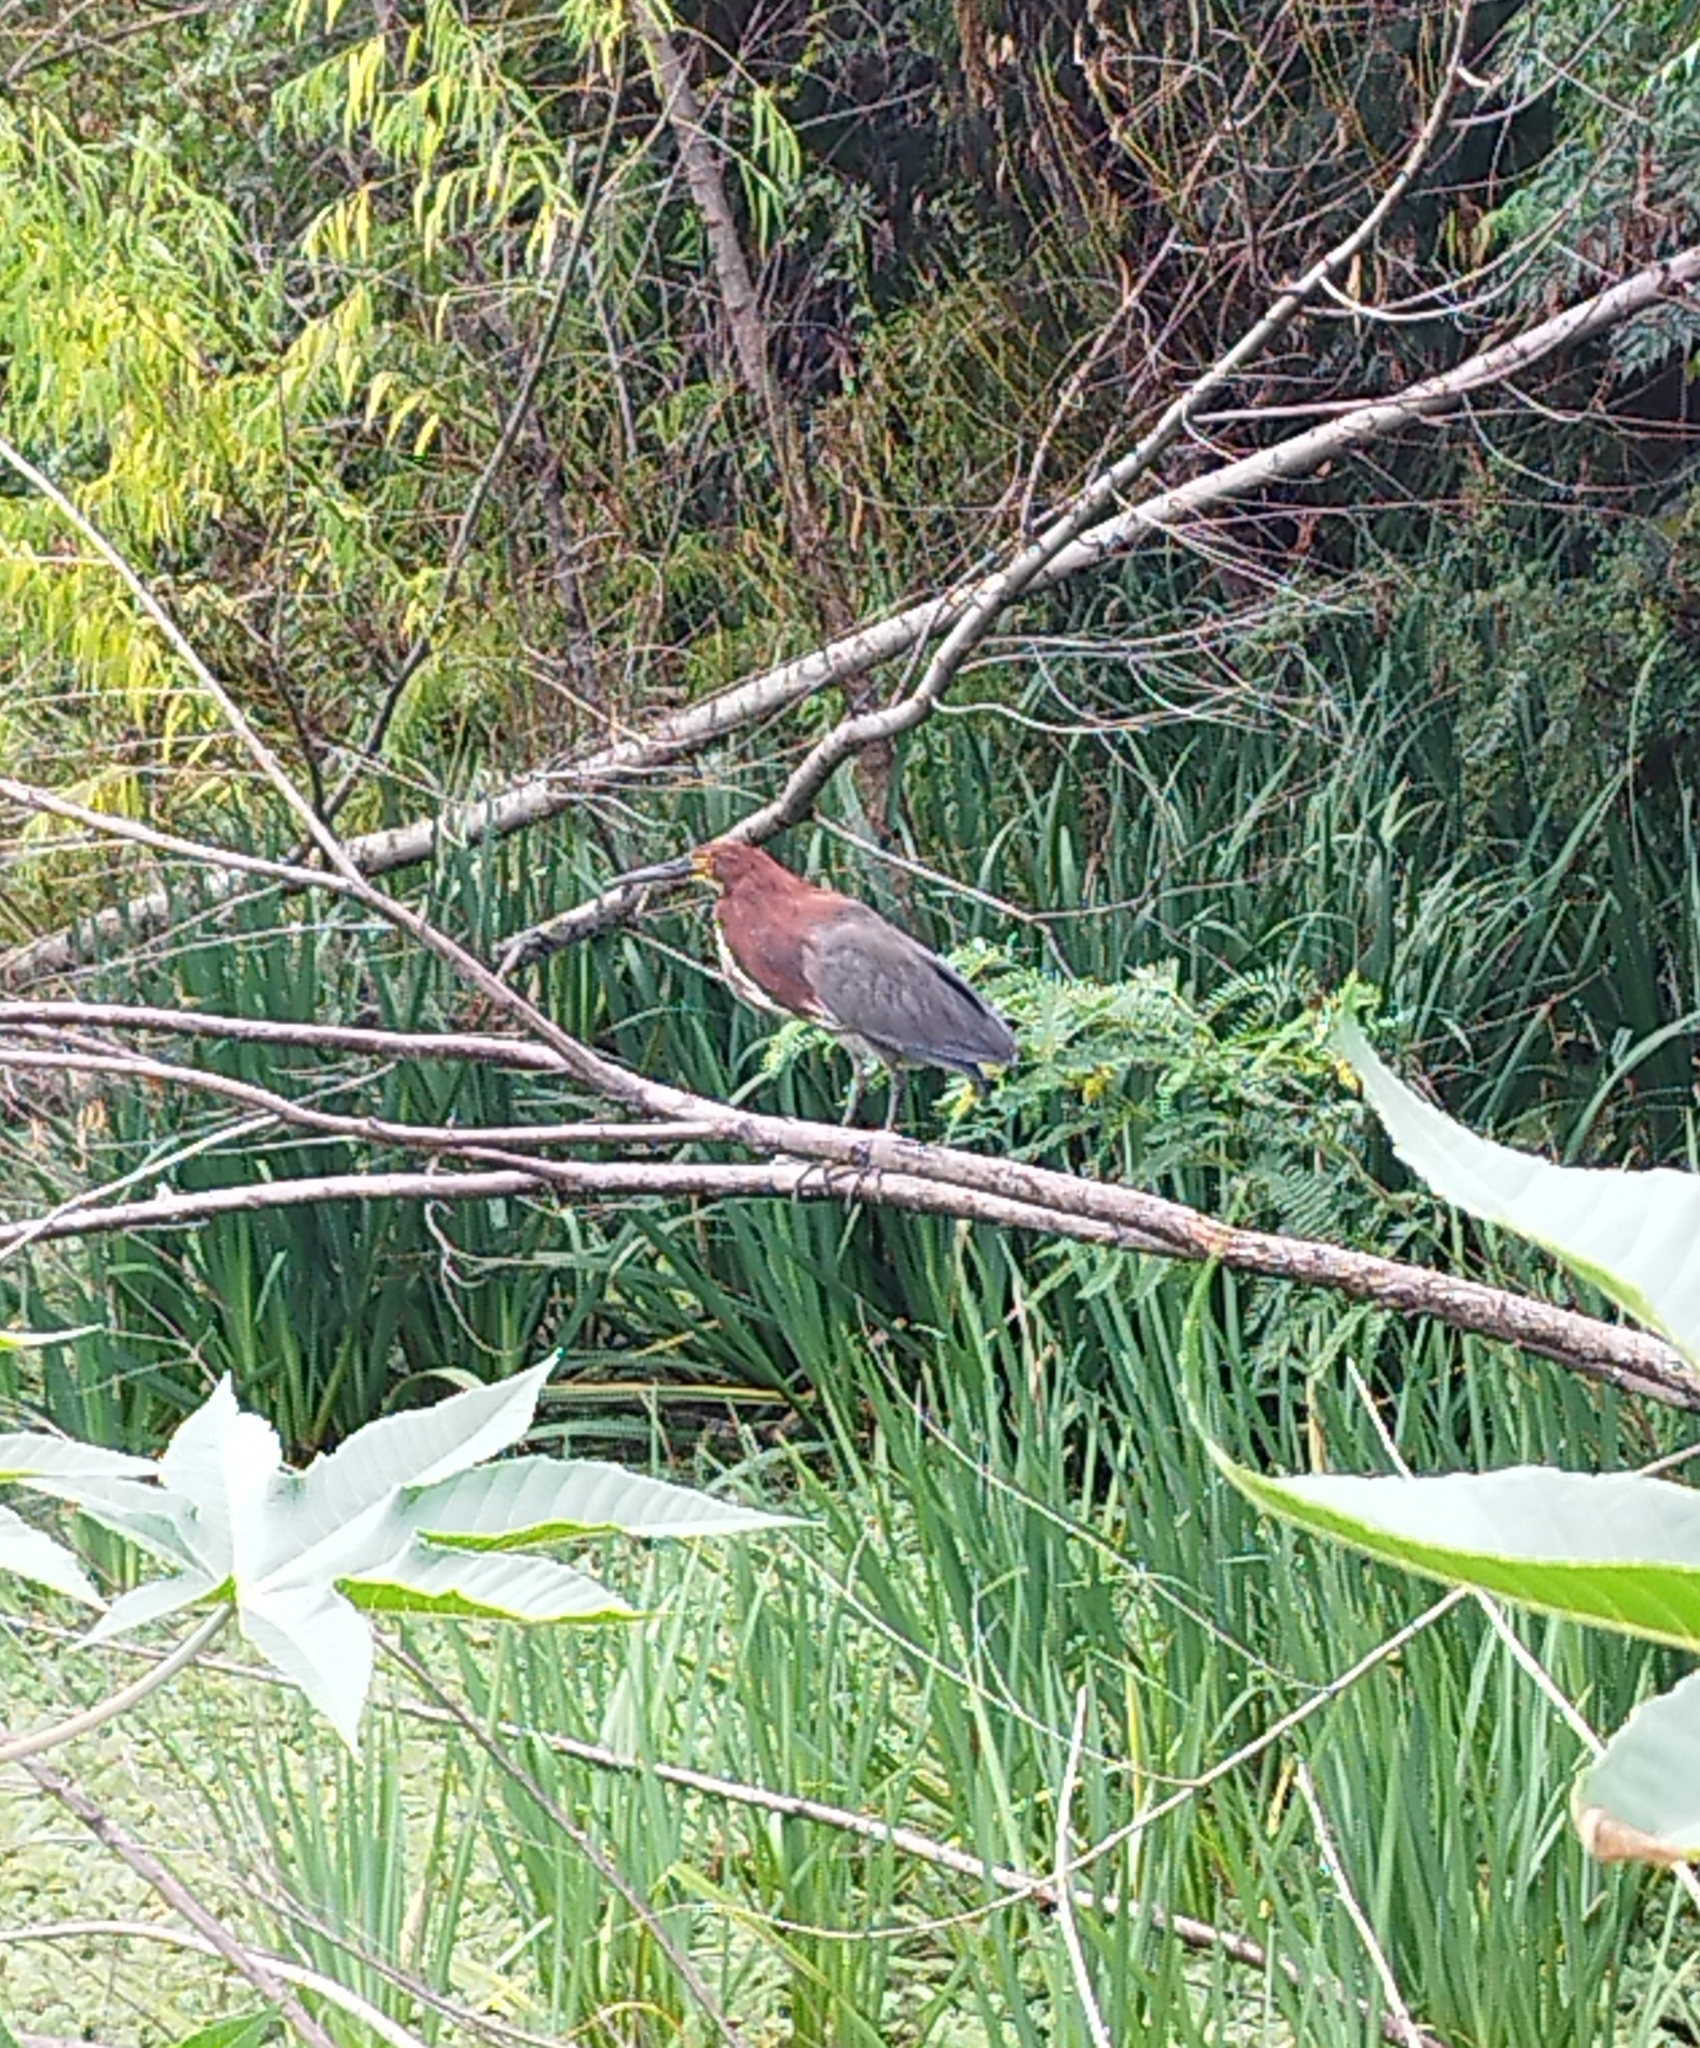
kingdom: Animalia
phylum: Chordata
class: Aves
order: Pelecaniformes
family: Ardeidae
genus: Tigrisoma
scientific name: Tigrisoma lineatum
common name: Rufescent tiger-heron
